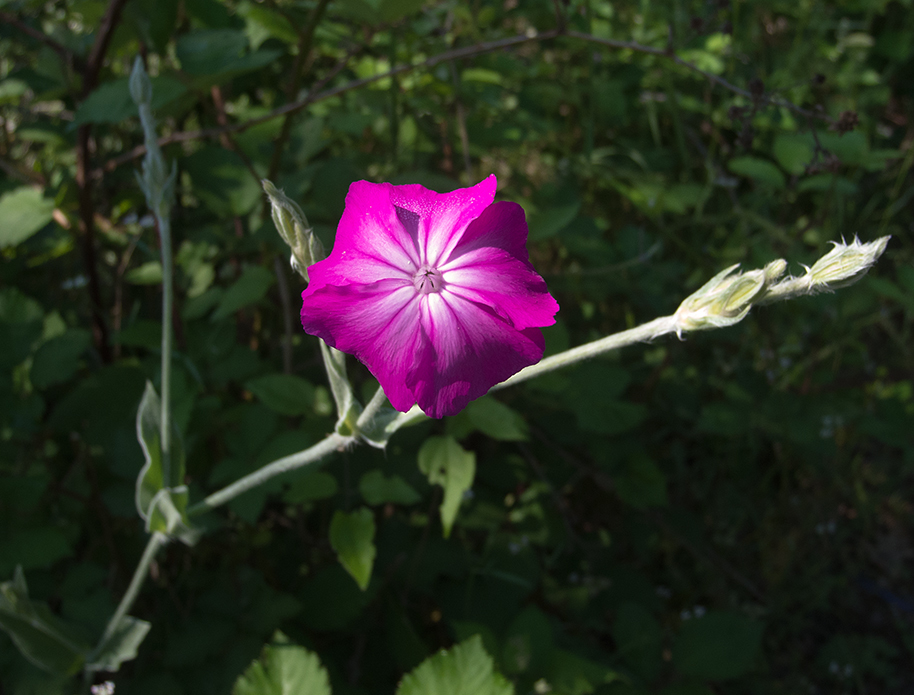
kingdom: Plantae
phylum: Tracheophyta
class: Magnoliopsida
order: Caryophyllales
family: Caryophyllaceae
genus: Silene
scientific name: Silene coronaria
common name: Rose campion
